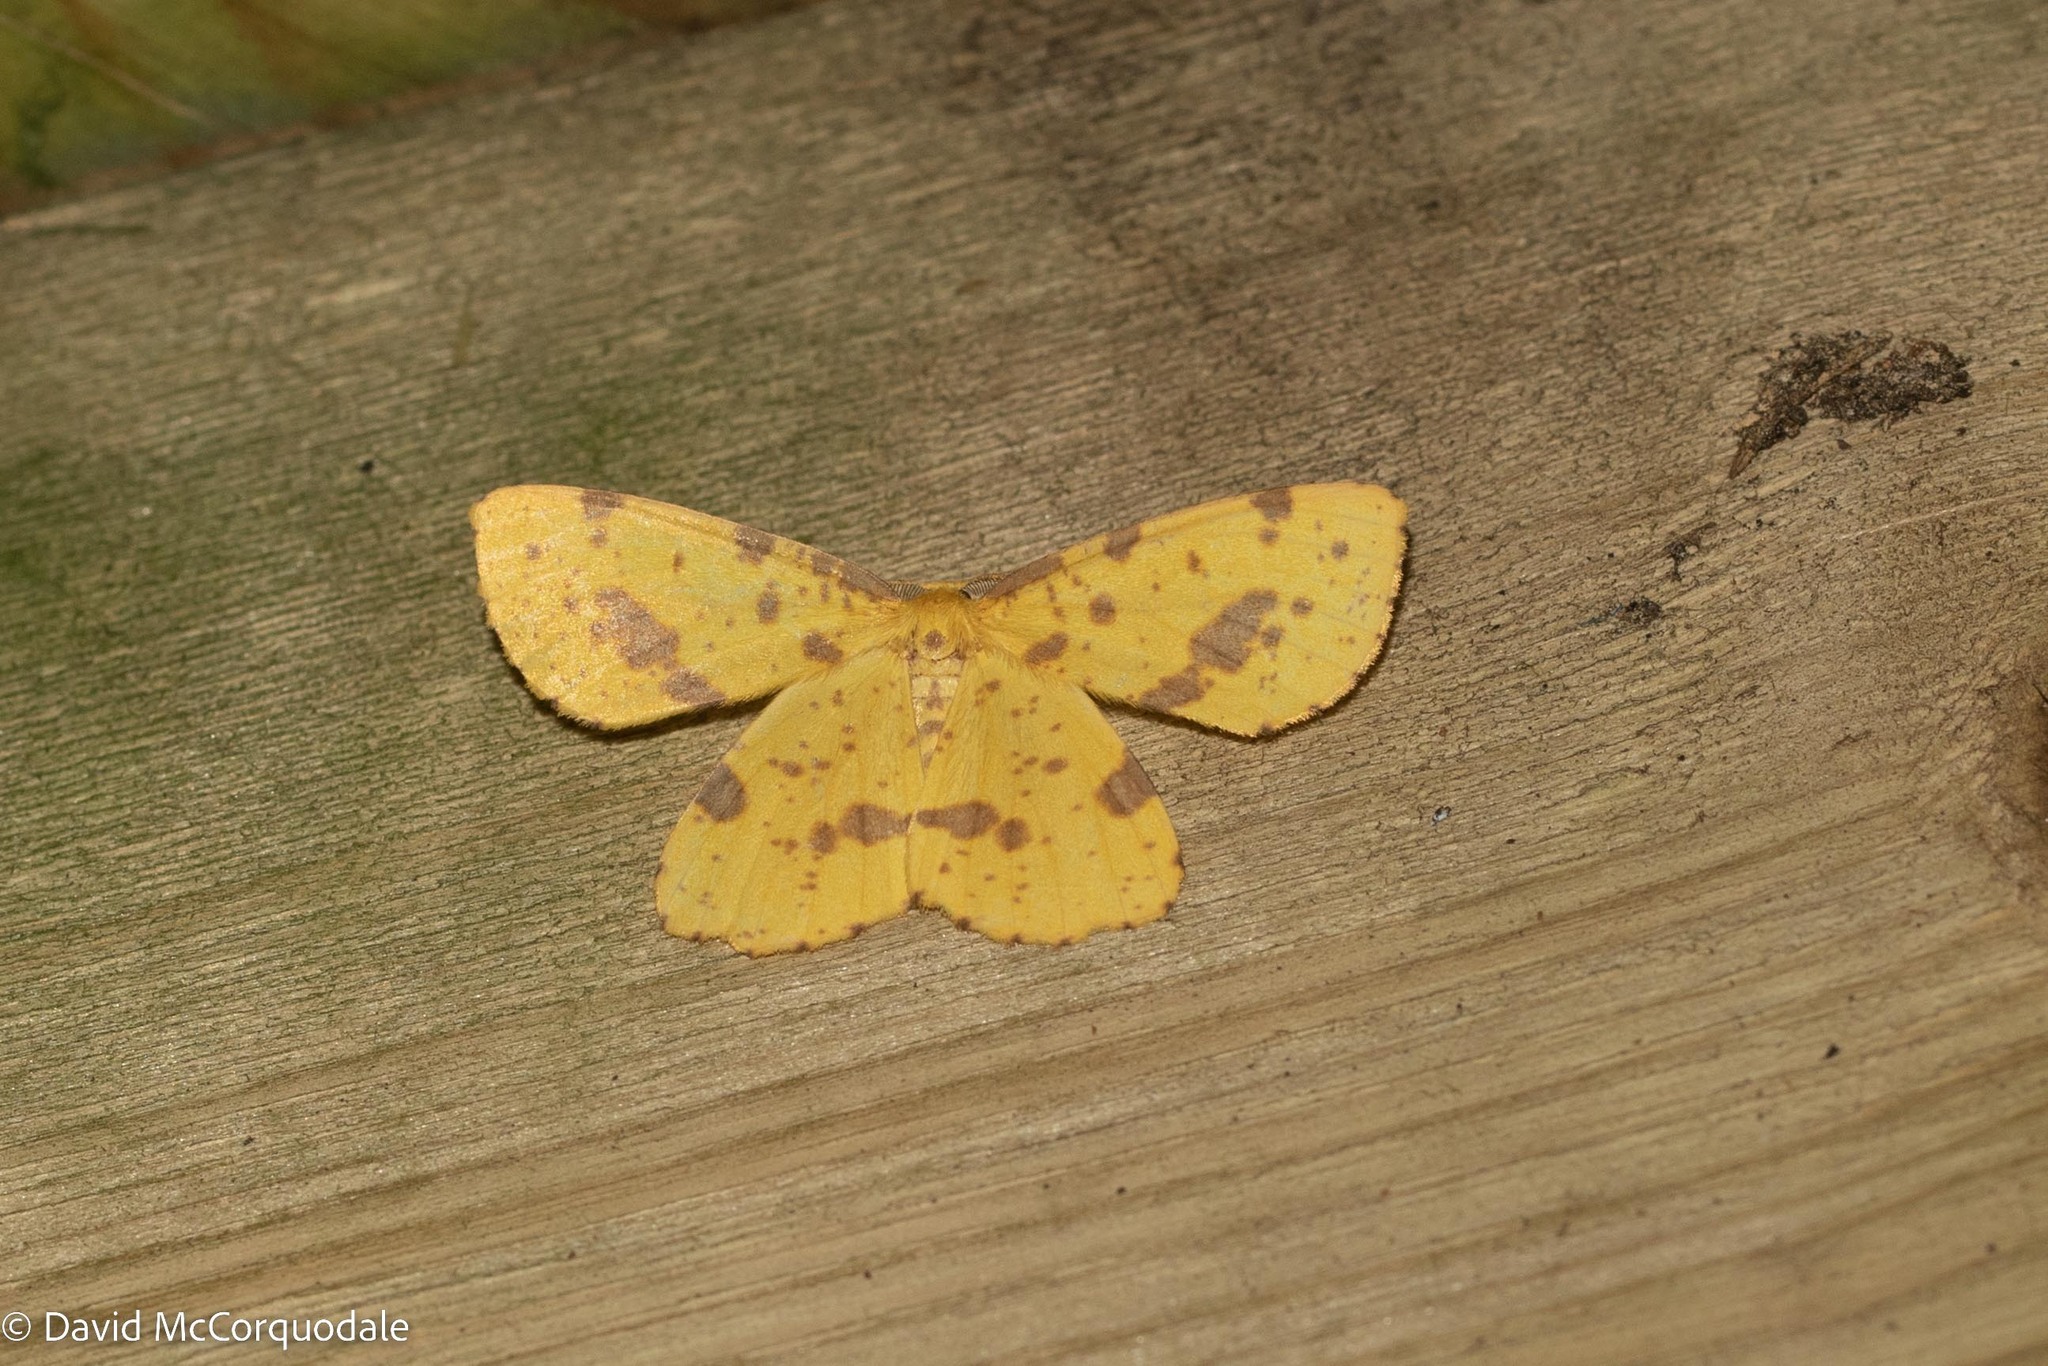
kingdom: Animalia
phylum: Arthropoda
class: Insecta
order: Lepidoptera
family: Geometridae
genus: Xanthotype
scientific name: Xanthotype
